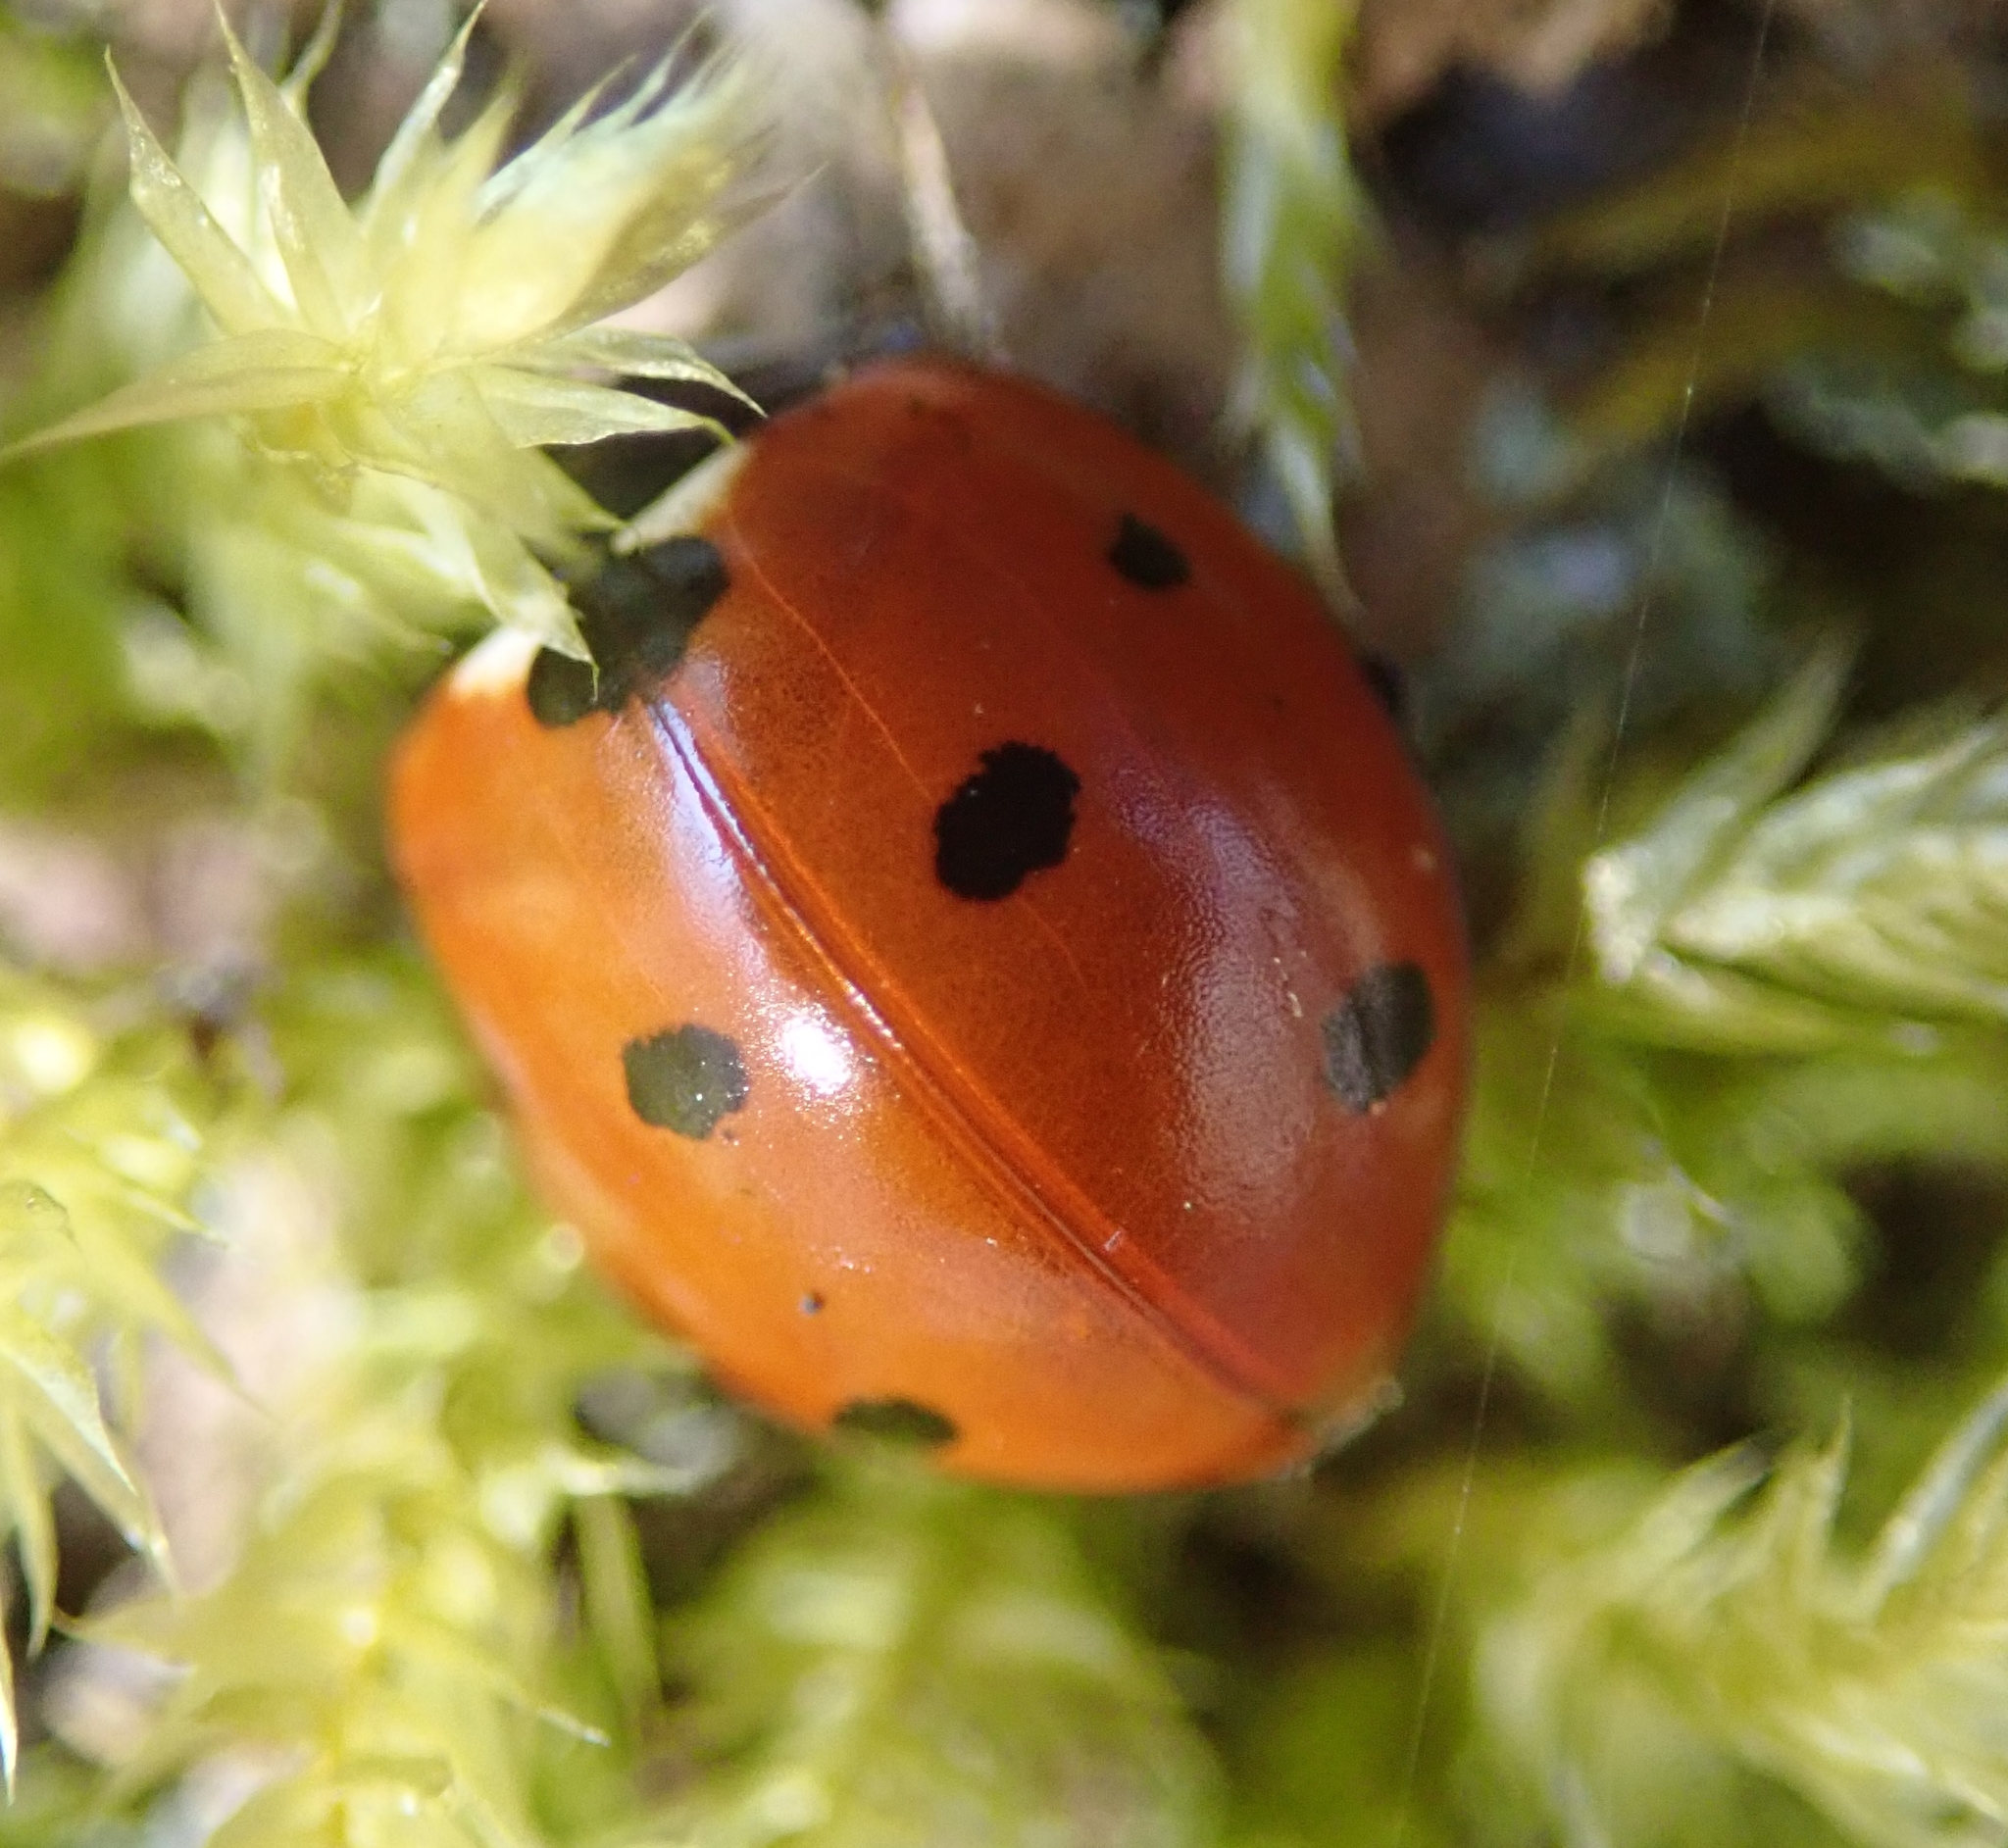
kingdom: Animalia
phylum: Arthropoda
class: Insecta
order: Coleoptera
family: Coccinellidae
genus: Coccinella
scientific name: Coccinella septempunctata
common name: Sevenspotted lady beetle
